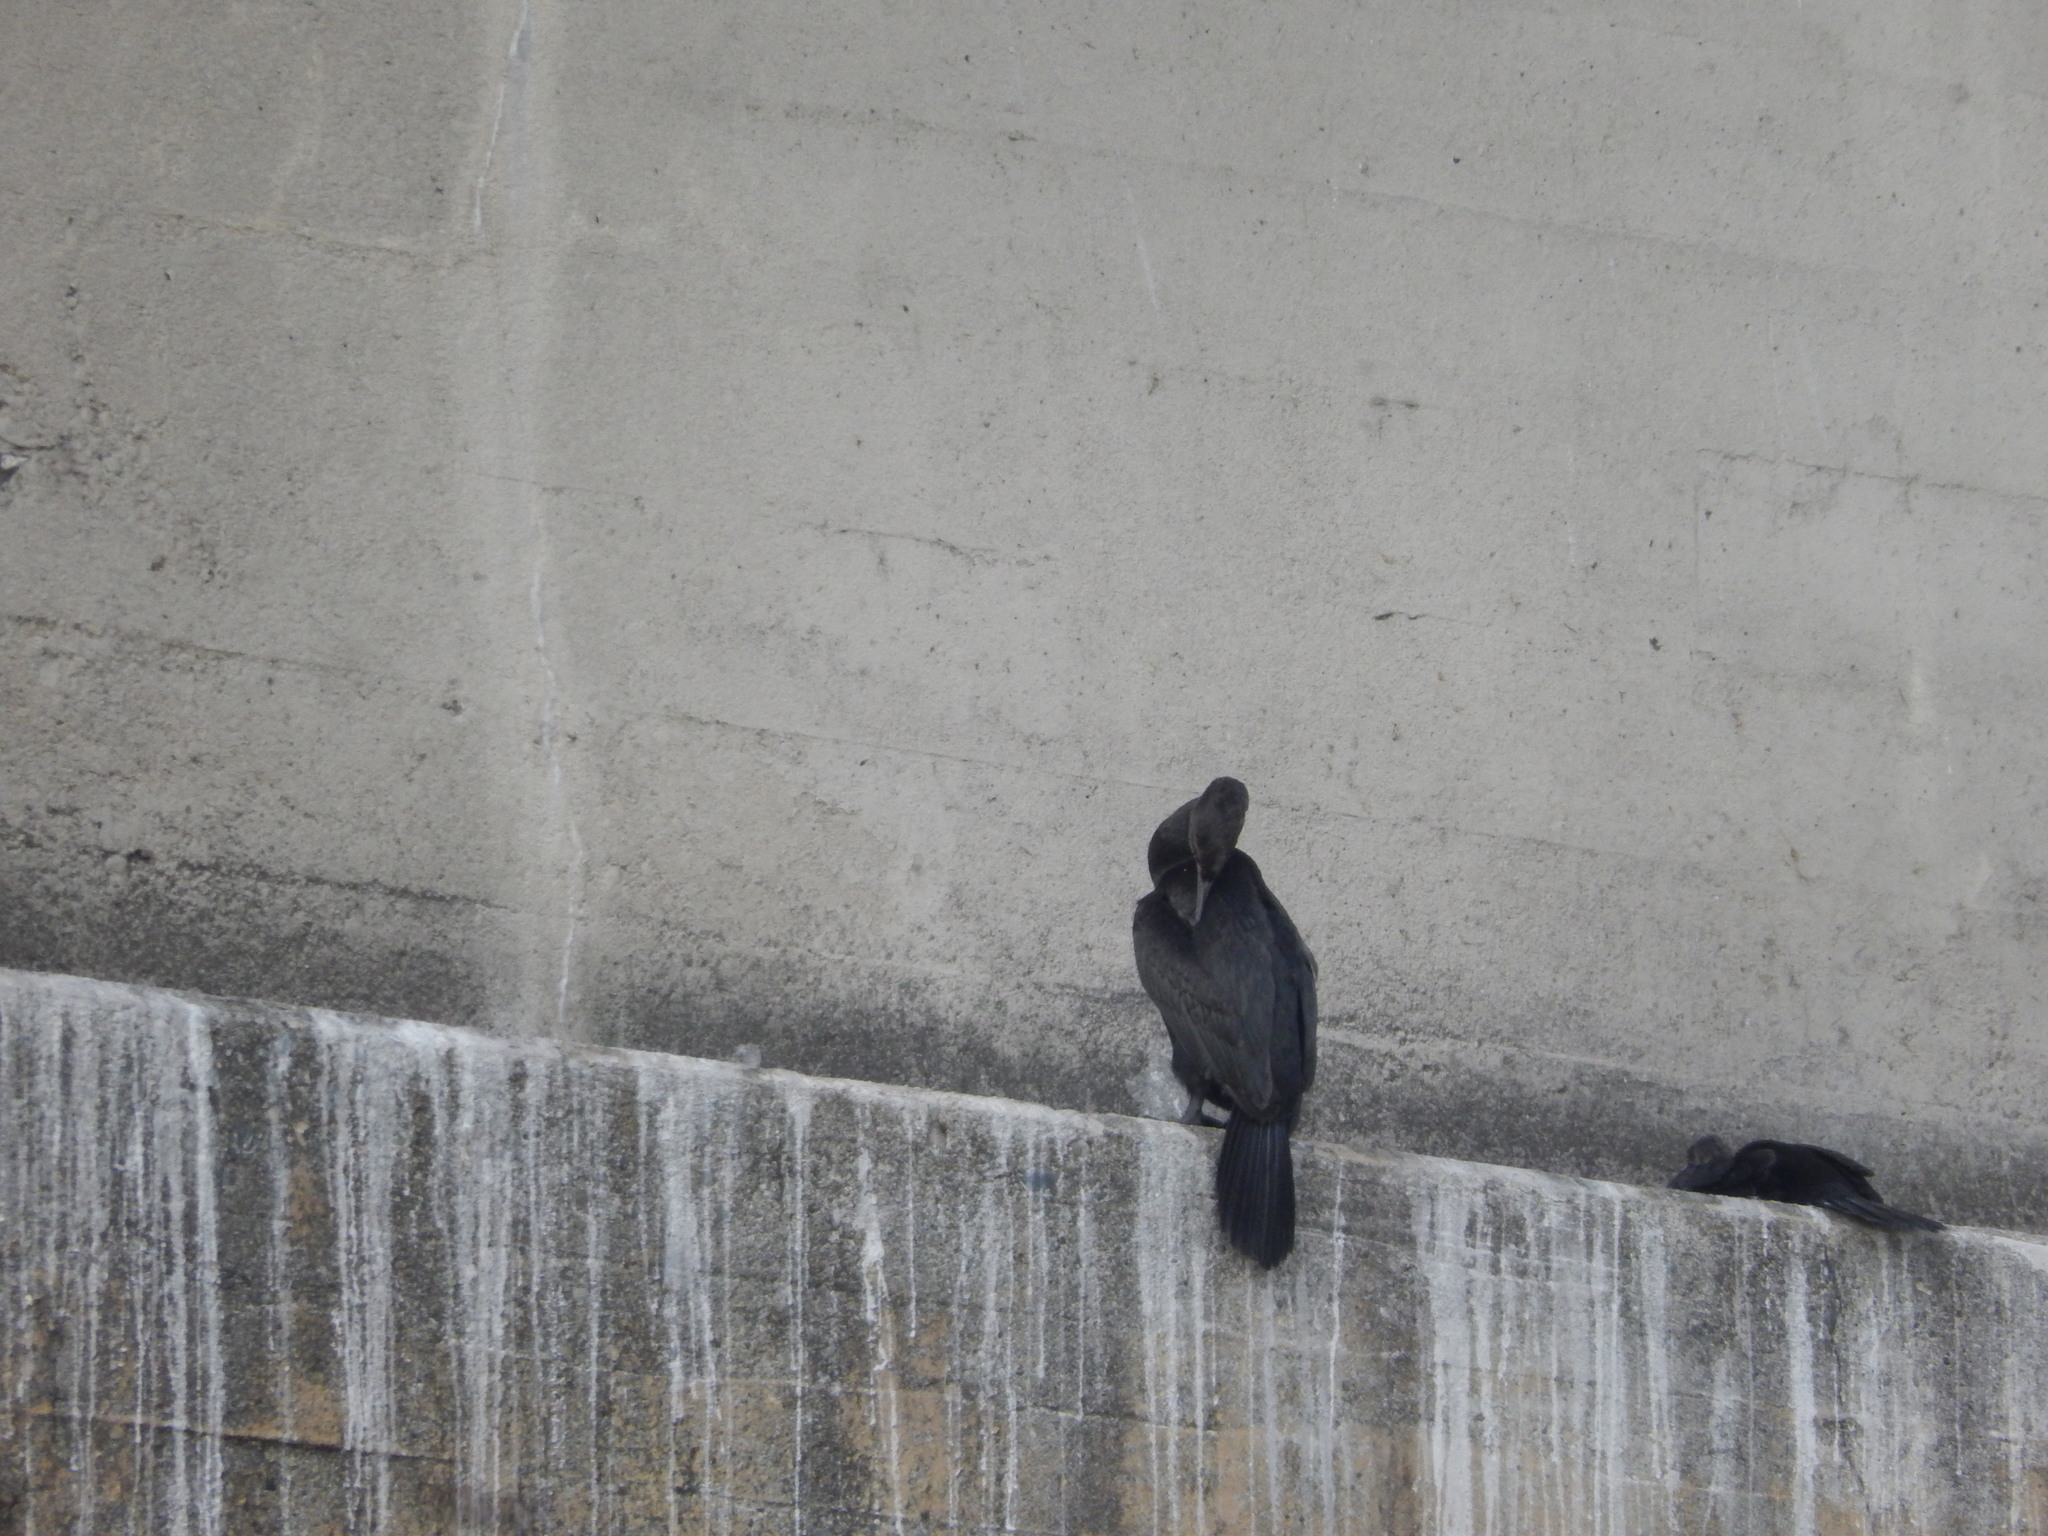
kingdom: Animalia
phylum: Chordata
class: Aves
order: Suliformes
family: Phalacrocoracidae
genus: Phalacrocorax
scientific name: Phalacrocorax pelagicus
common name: Pelagic cormorant
